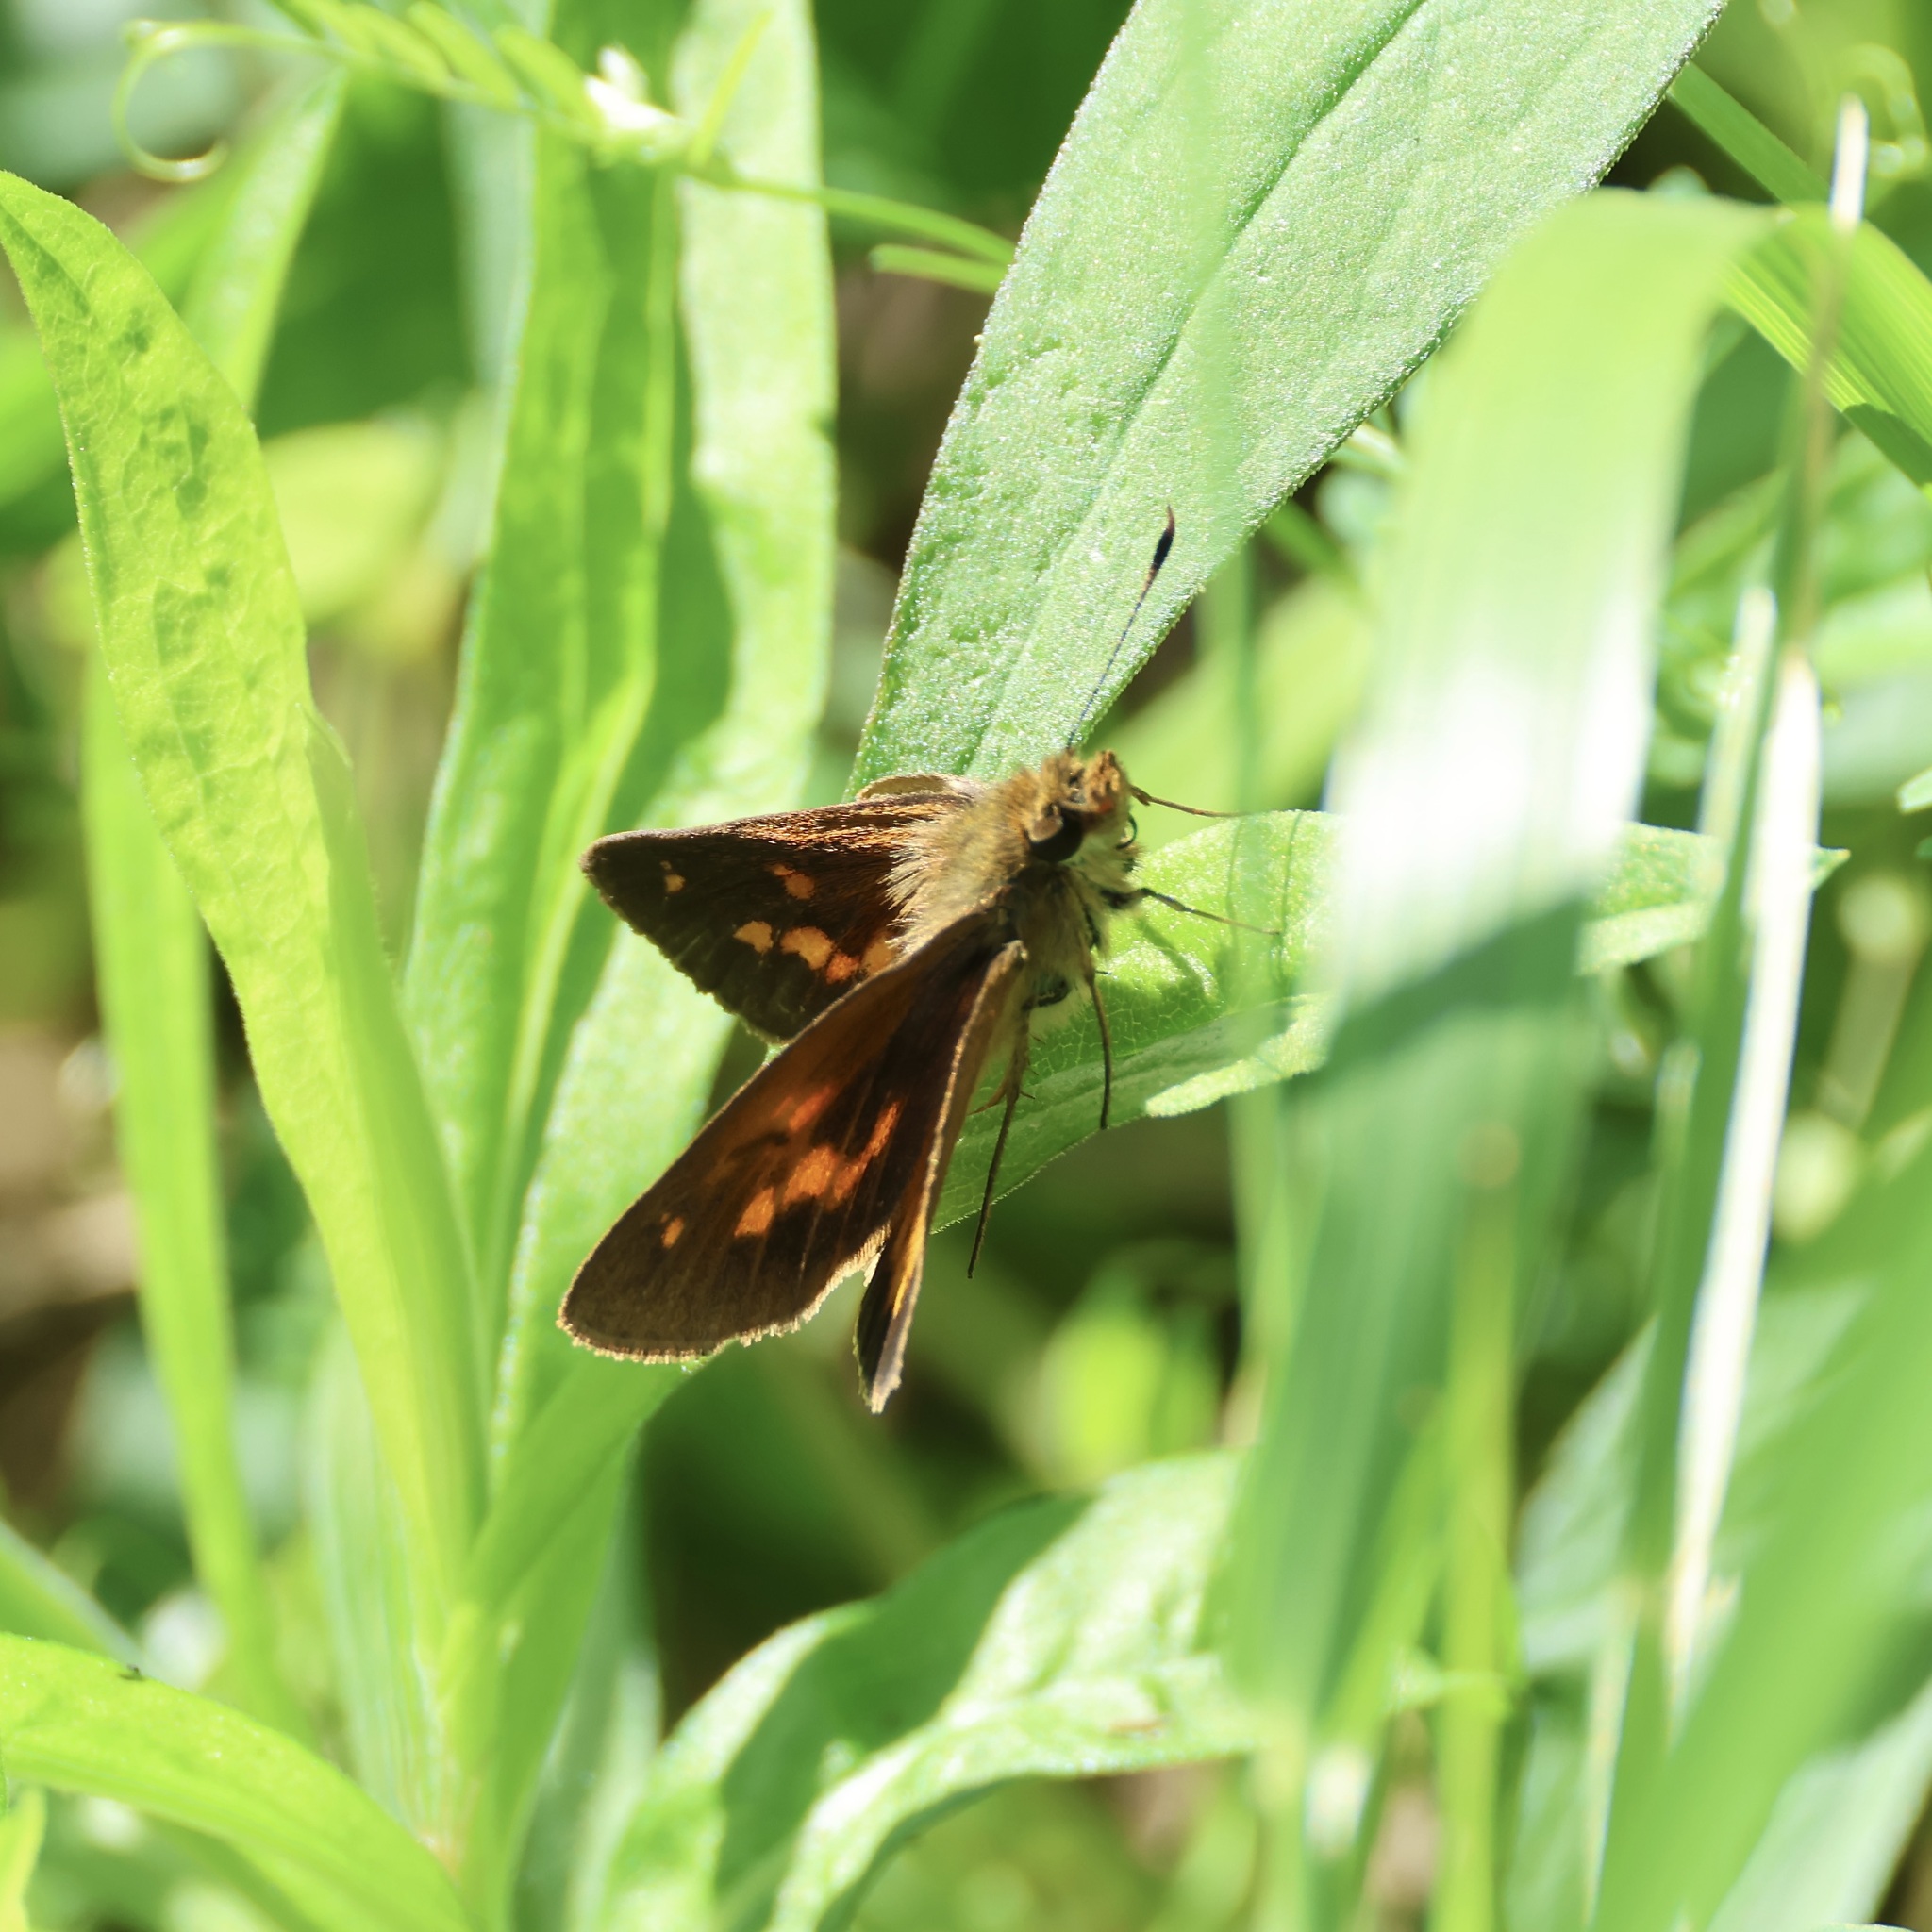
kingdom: Animalia
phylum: Arthropoda
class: Insecta
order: Lepidoptera
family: Hesperiidae
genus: Poanes
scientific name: Poanes viator
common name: Broad-winged skipper
